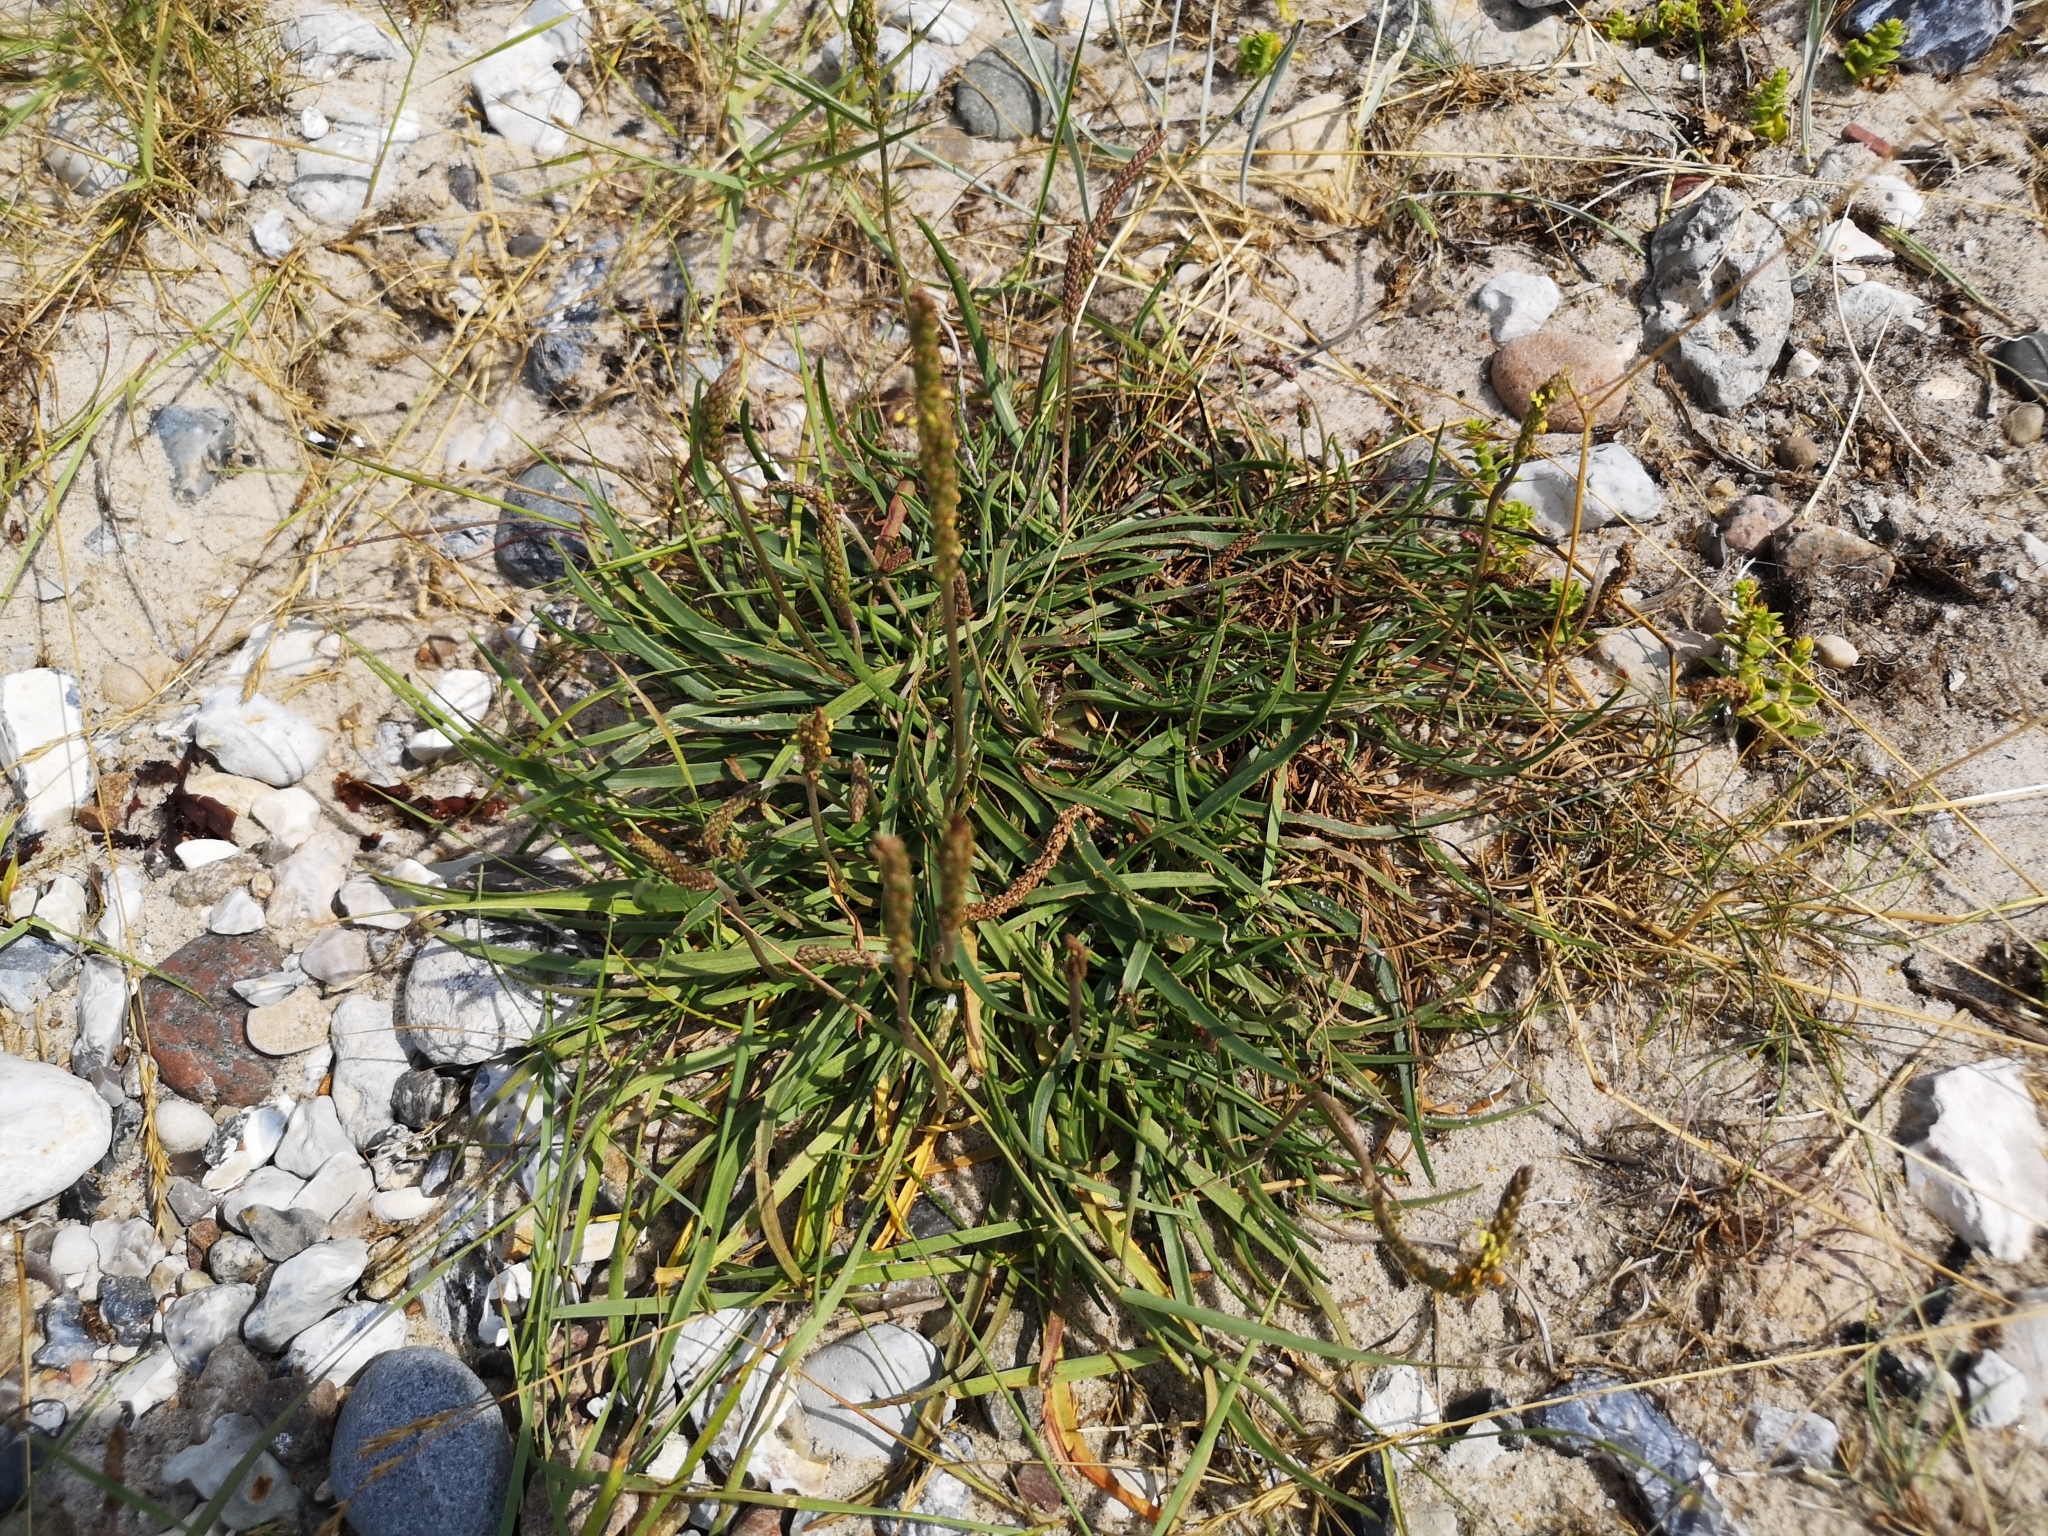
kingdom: Plantae
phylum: Tracheophyta
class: Magnoliopsida
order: Lamiales
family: Plantaginaceae
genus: Plantago
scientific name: Plantago maritima
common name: Sea plantain
